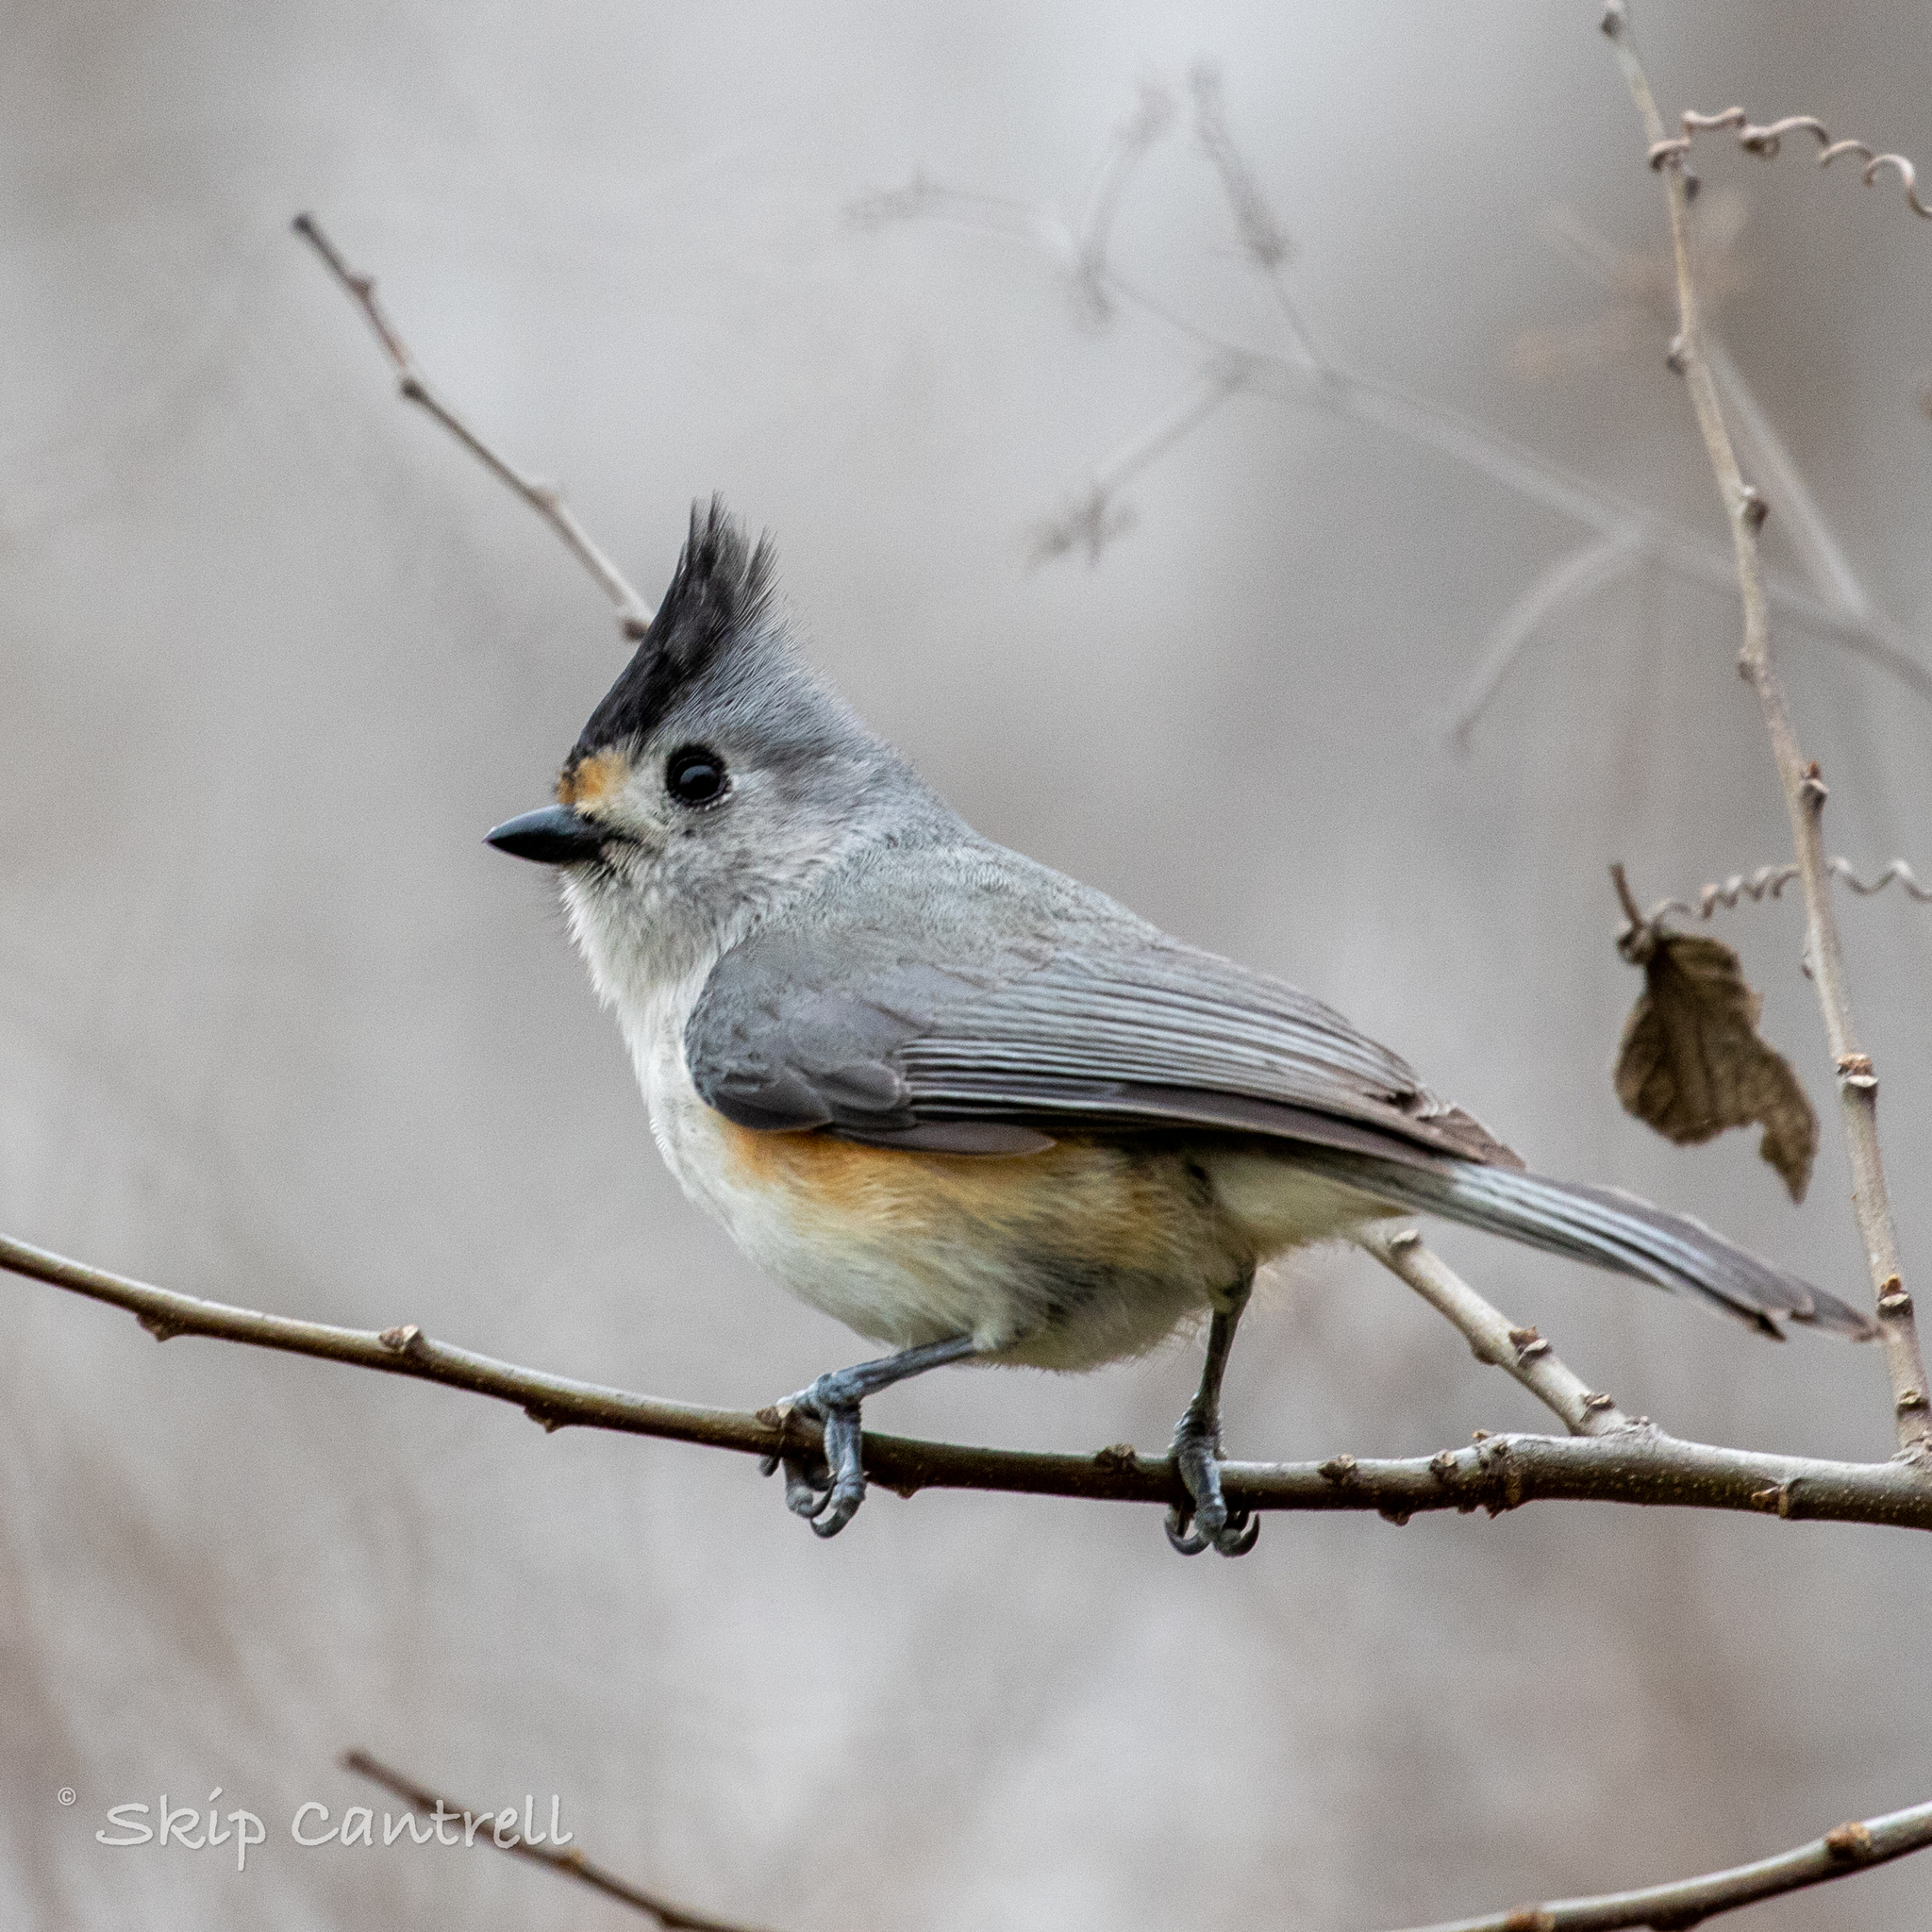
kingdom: Animalia
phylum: Chordata
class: Aves
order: Passeriformes
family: Paridae
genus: Baeolophus
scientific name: Baeolophus atricristatus
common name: Black-crested titmouse
